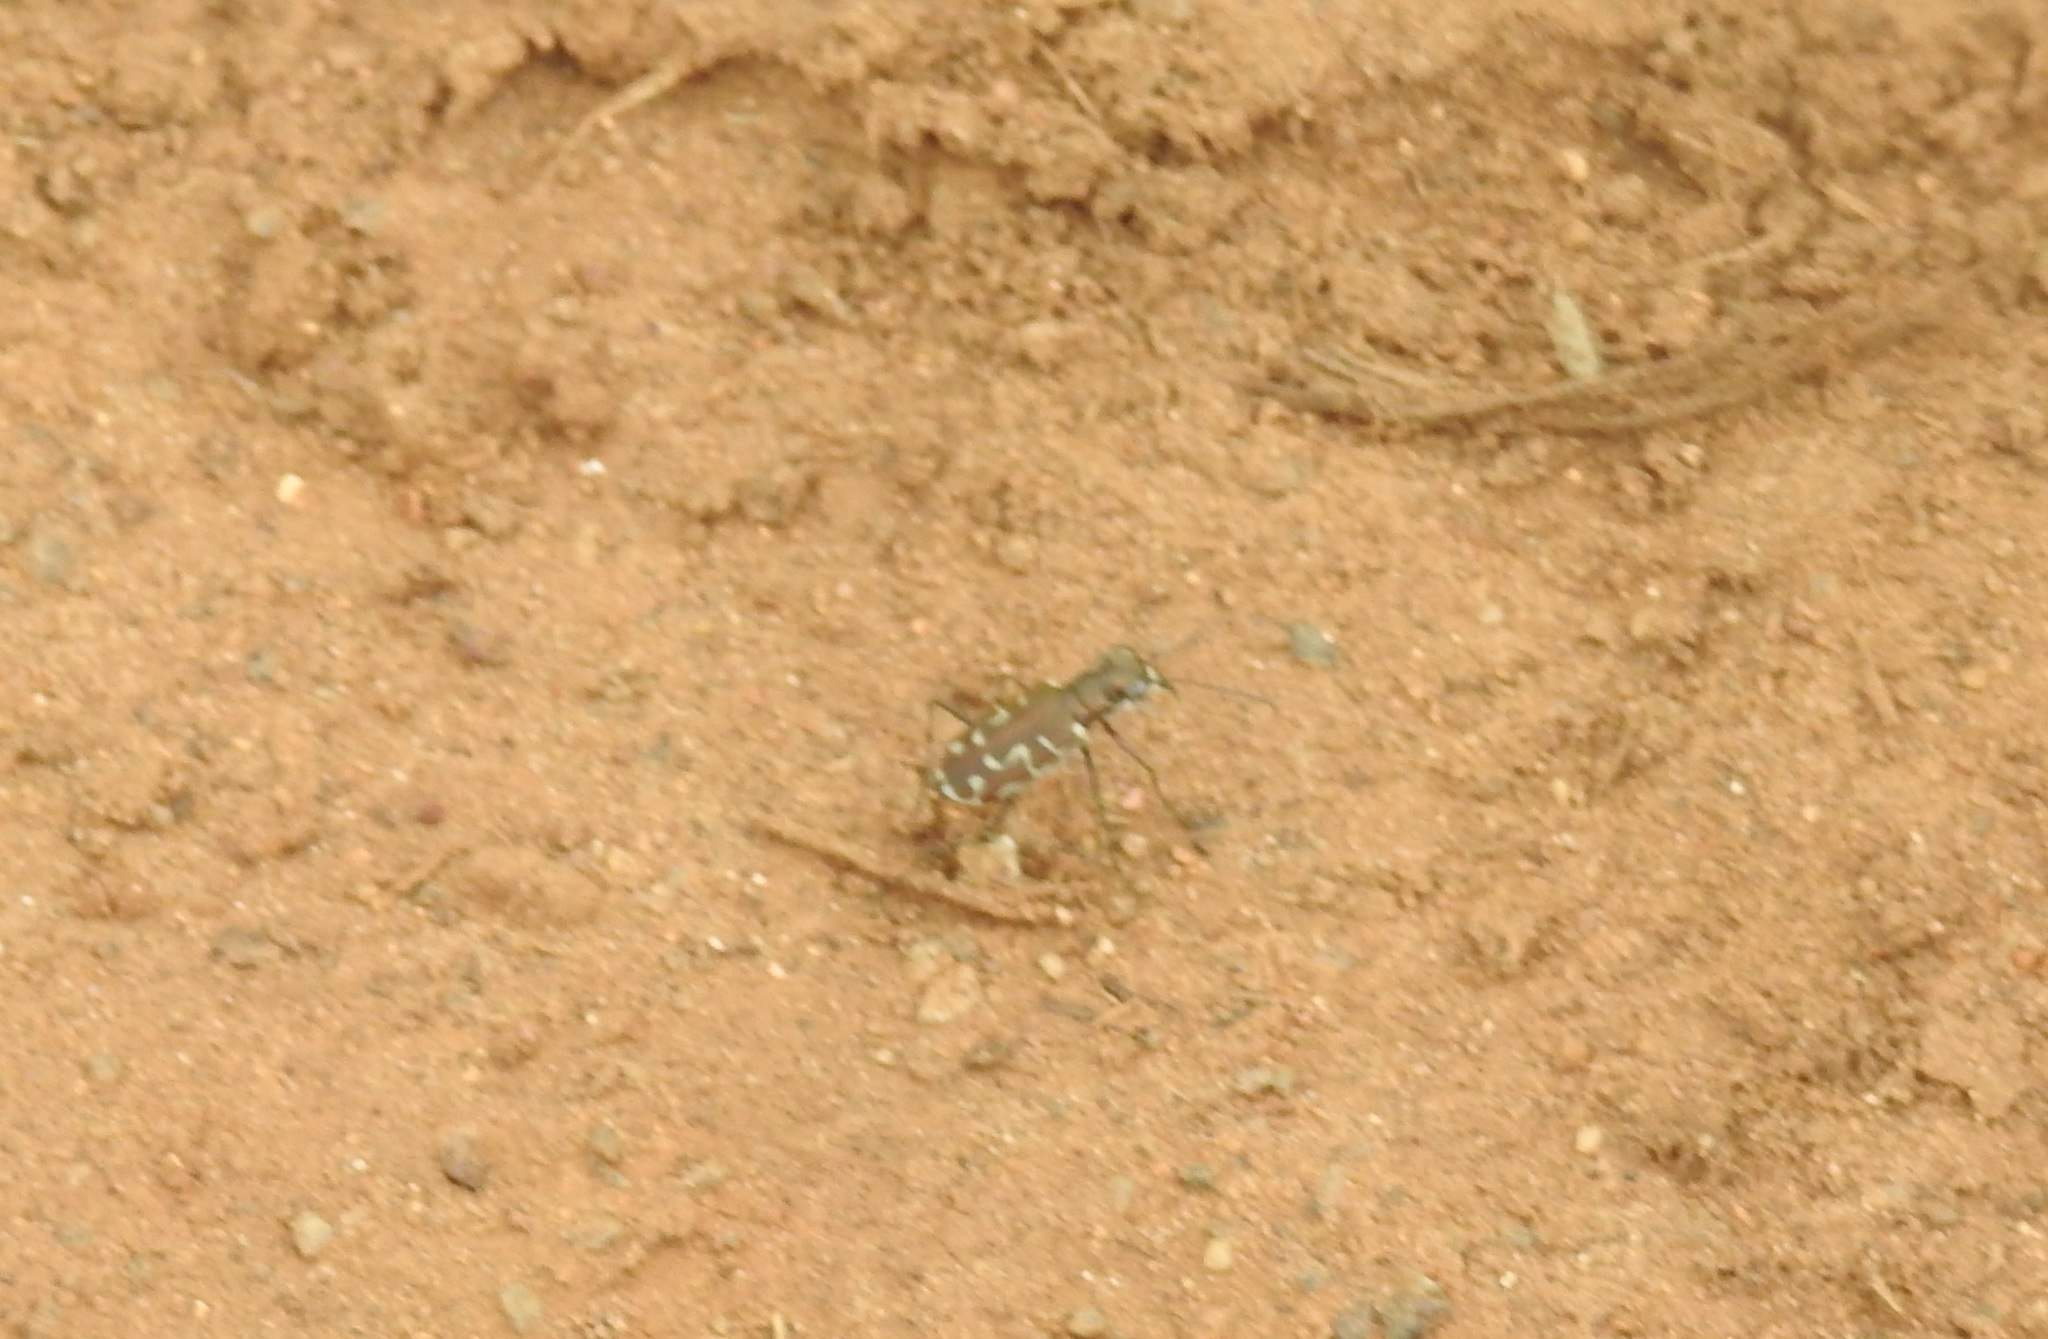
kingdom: Animalia
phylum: Arthropoda
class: Insecta
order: Coleoptera
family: Carabidae
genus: Cicindela
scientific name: Cicindela angulata
